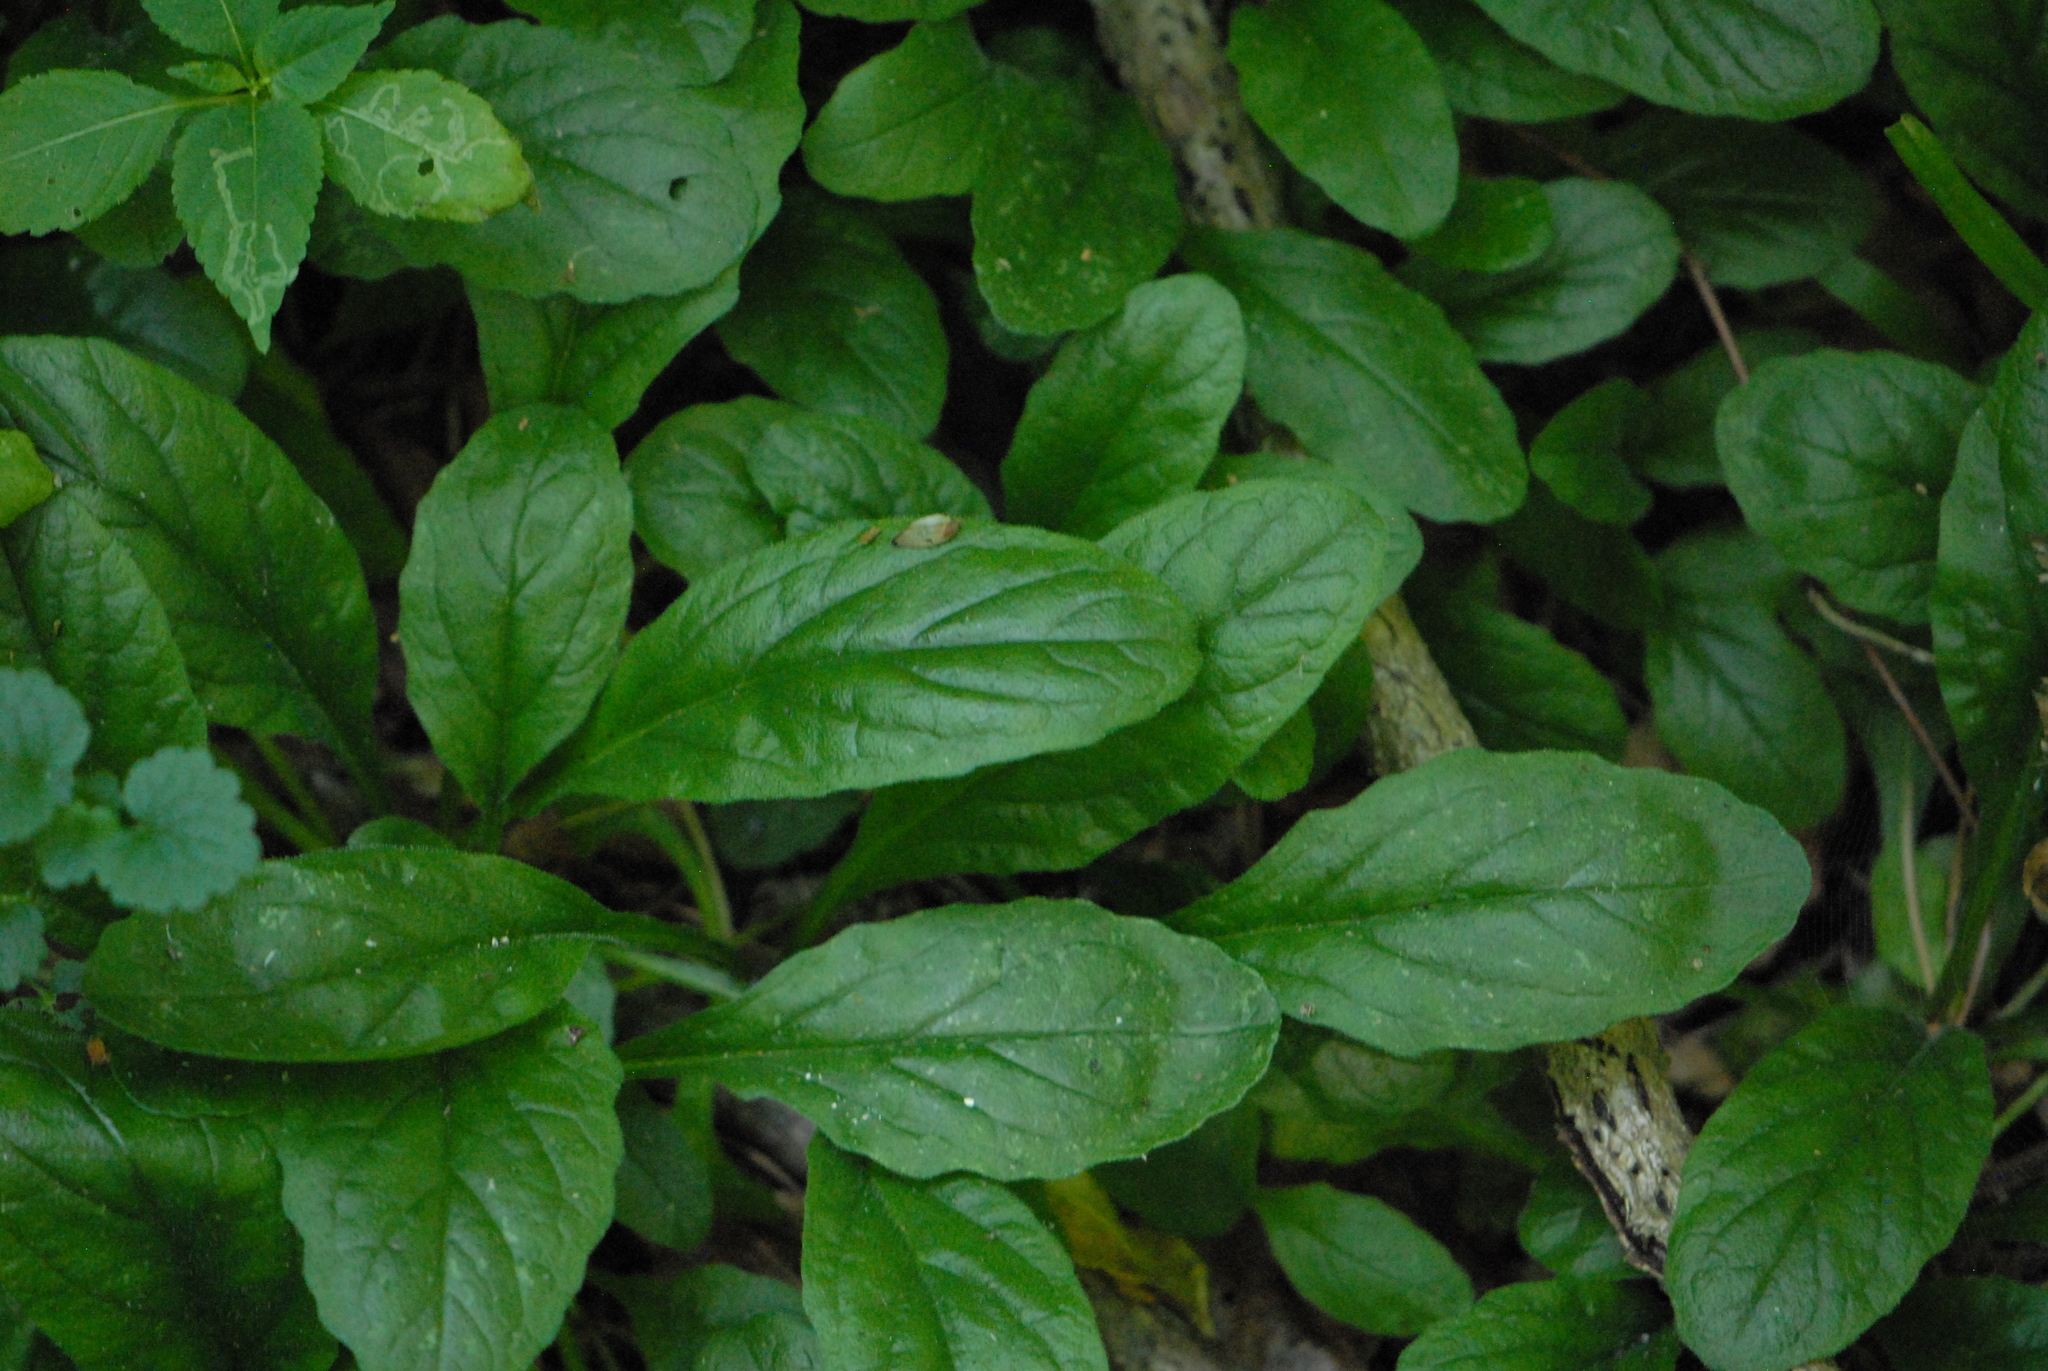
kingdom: Plantae
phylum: Tracheophyta
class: Magnoliopsida
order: Lamiales
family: Lamiaceae
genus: Ajuga
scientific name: Ajuga reptans
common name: Bugle
